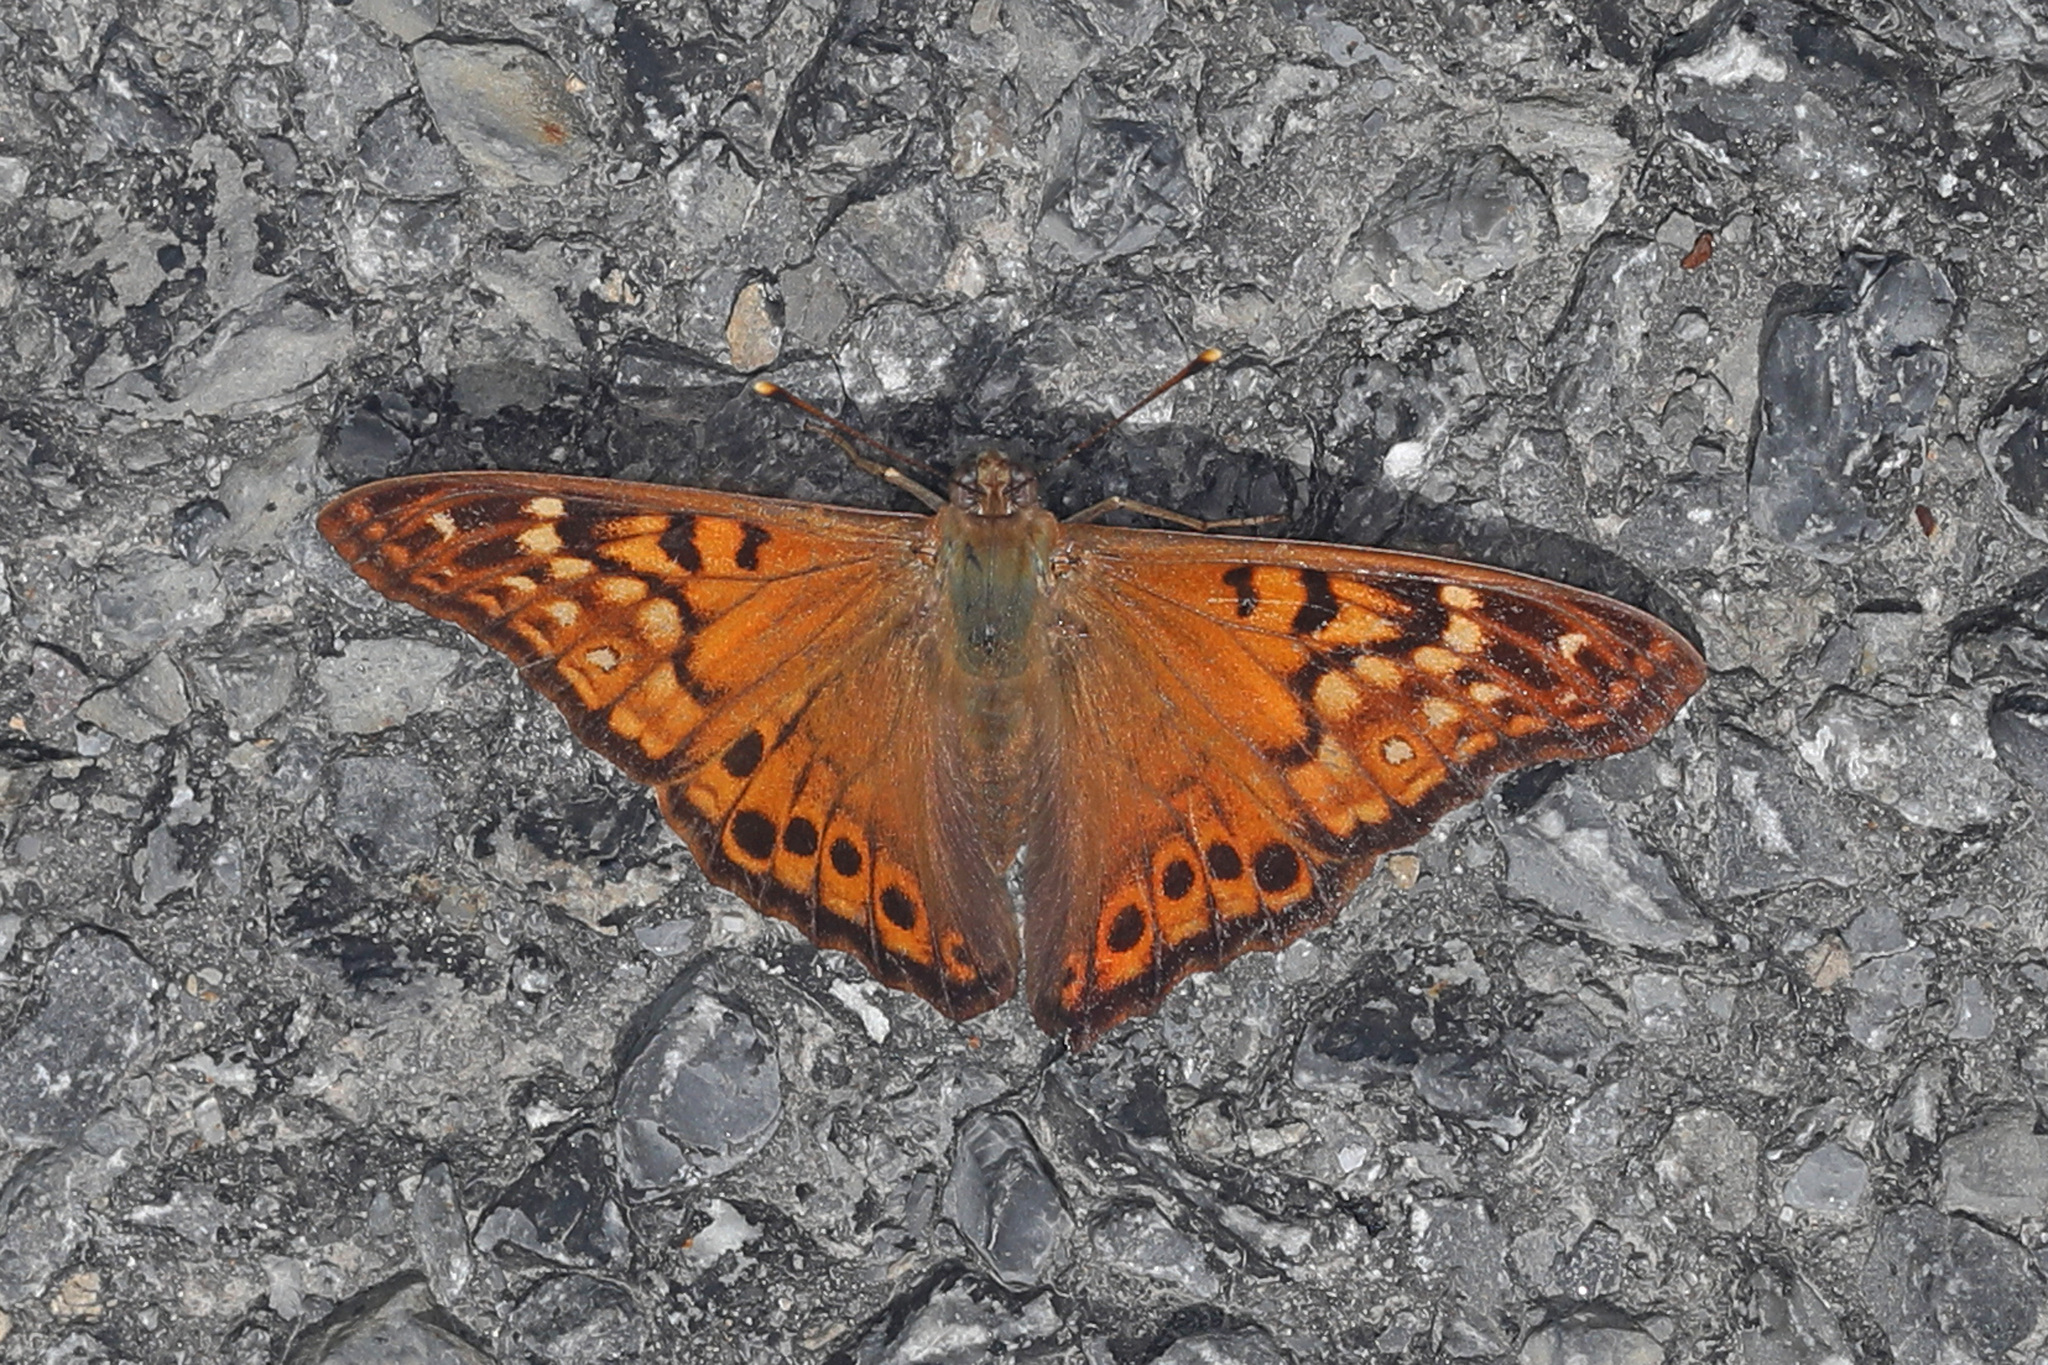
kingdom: Animalia
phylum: Arthropoda
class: Insecta
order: Lepidoptera
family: Nymphalidae
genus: Asterocampa
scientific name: Asterocampa clyton
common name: Tawny emperor
